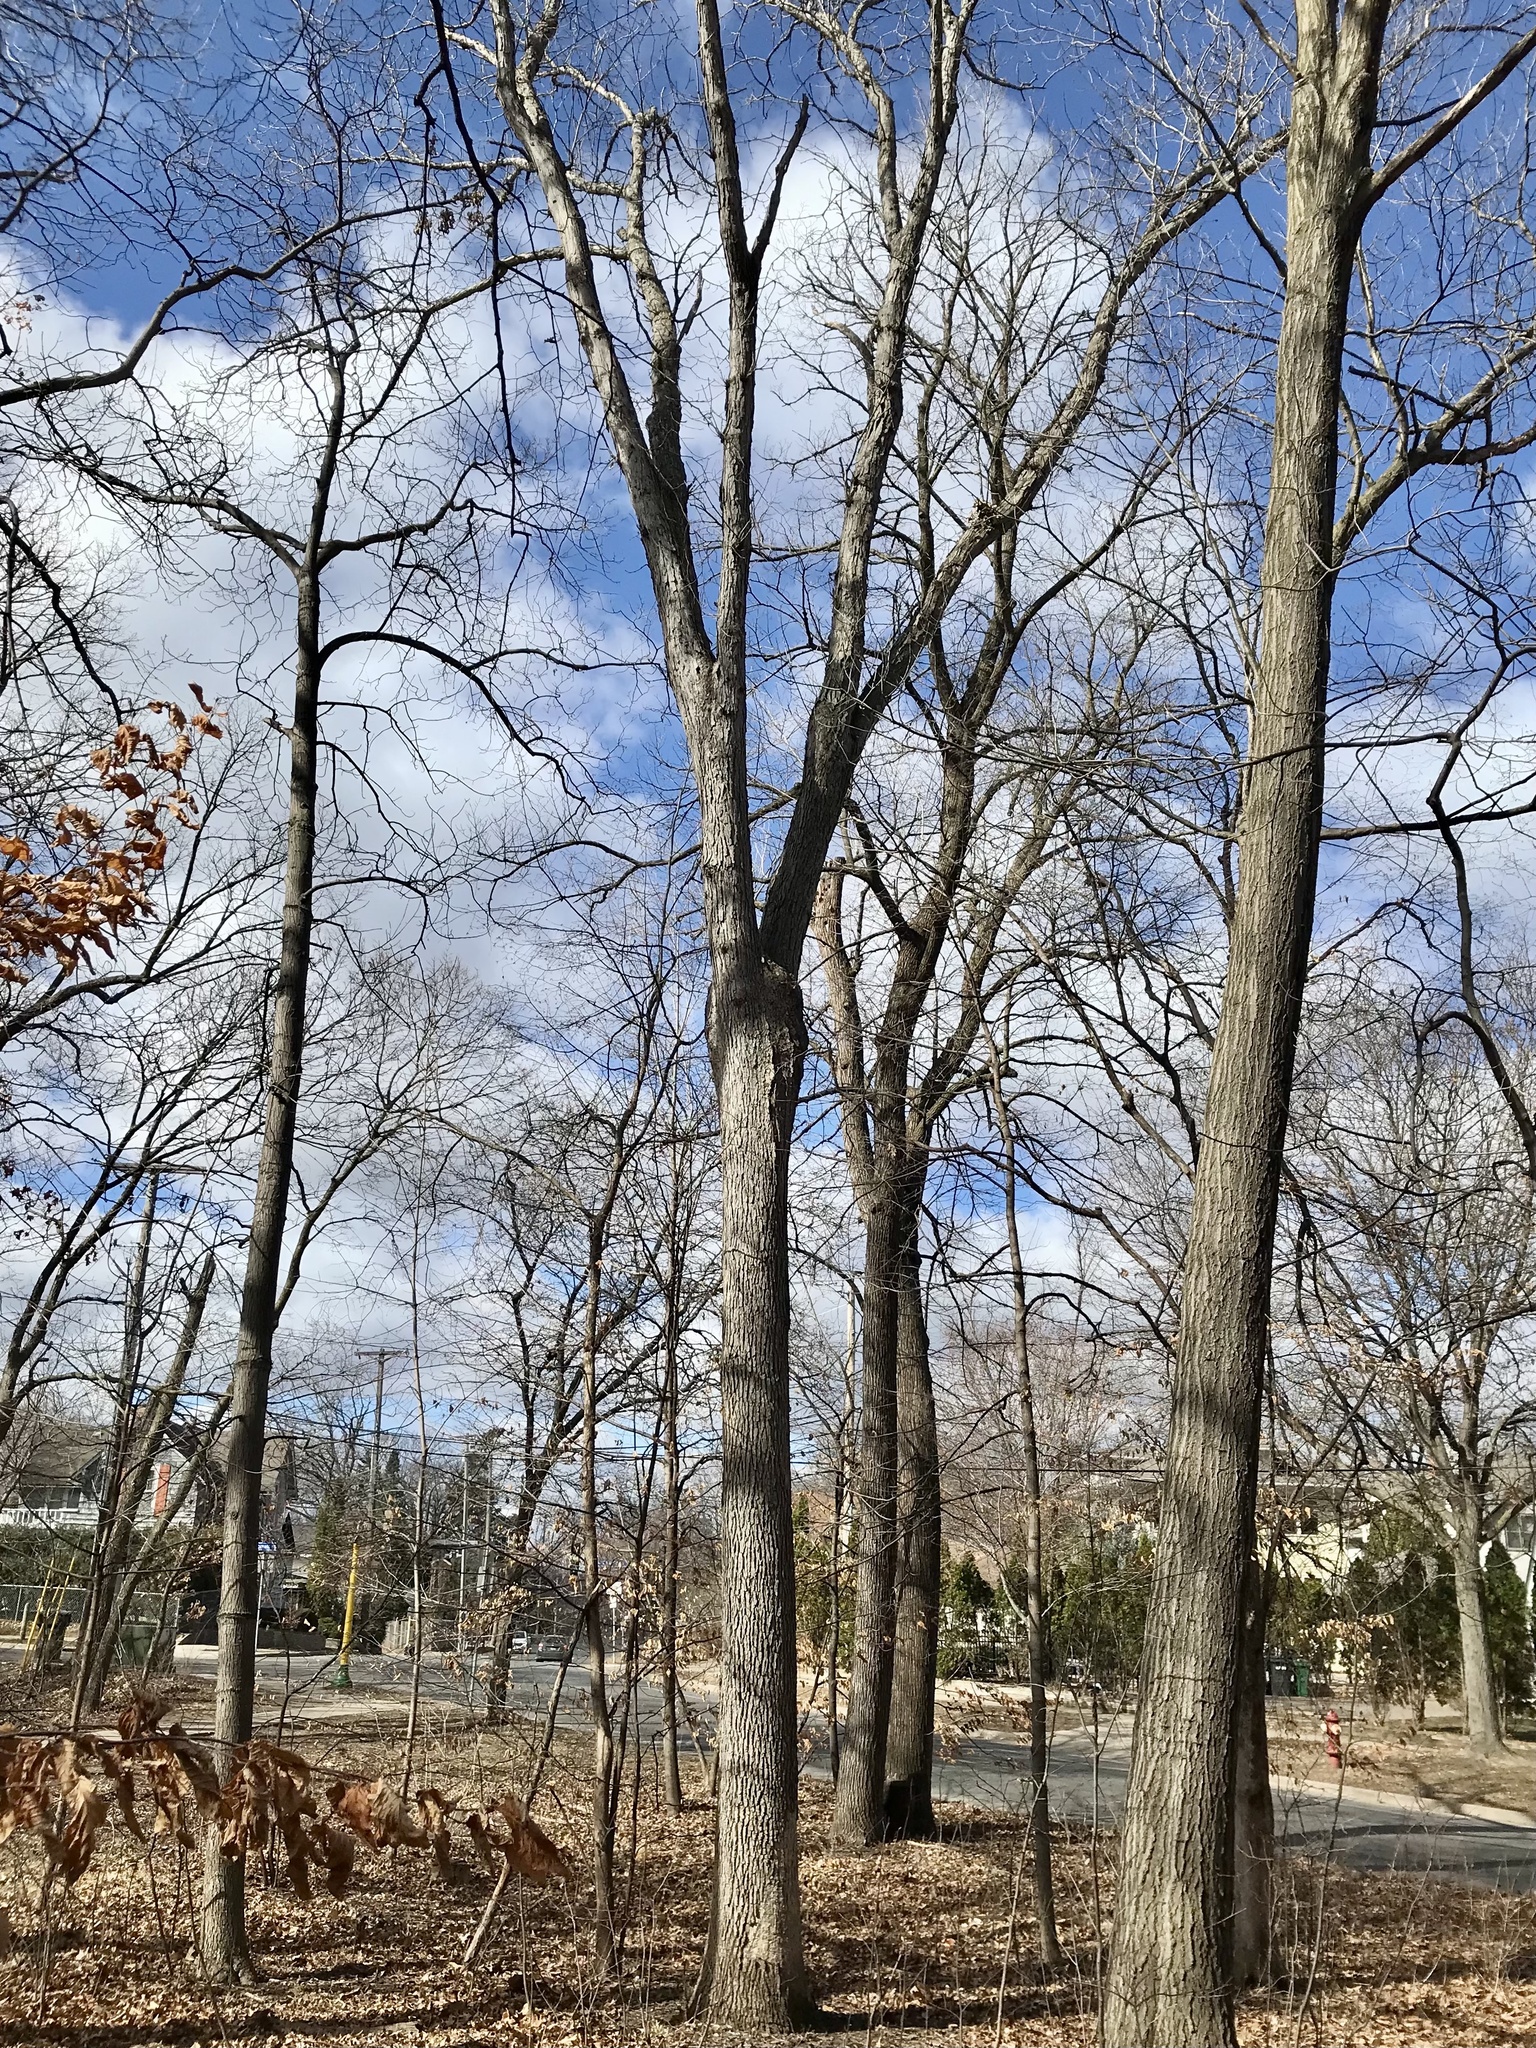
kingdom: Plantae
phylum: Tracheophyta
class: Magnoliopsida
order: Fagales
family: Fagaceae
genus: Quercus
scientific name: Quercus alba
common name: White oak
